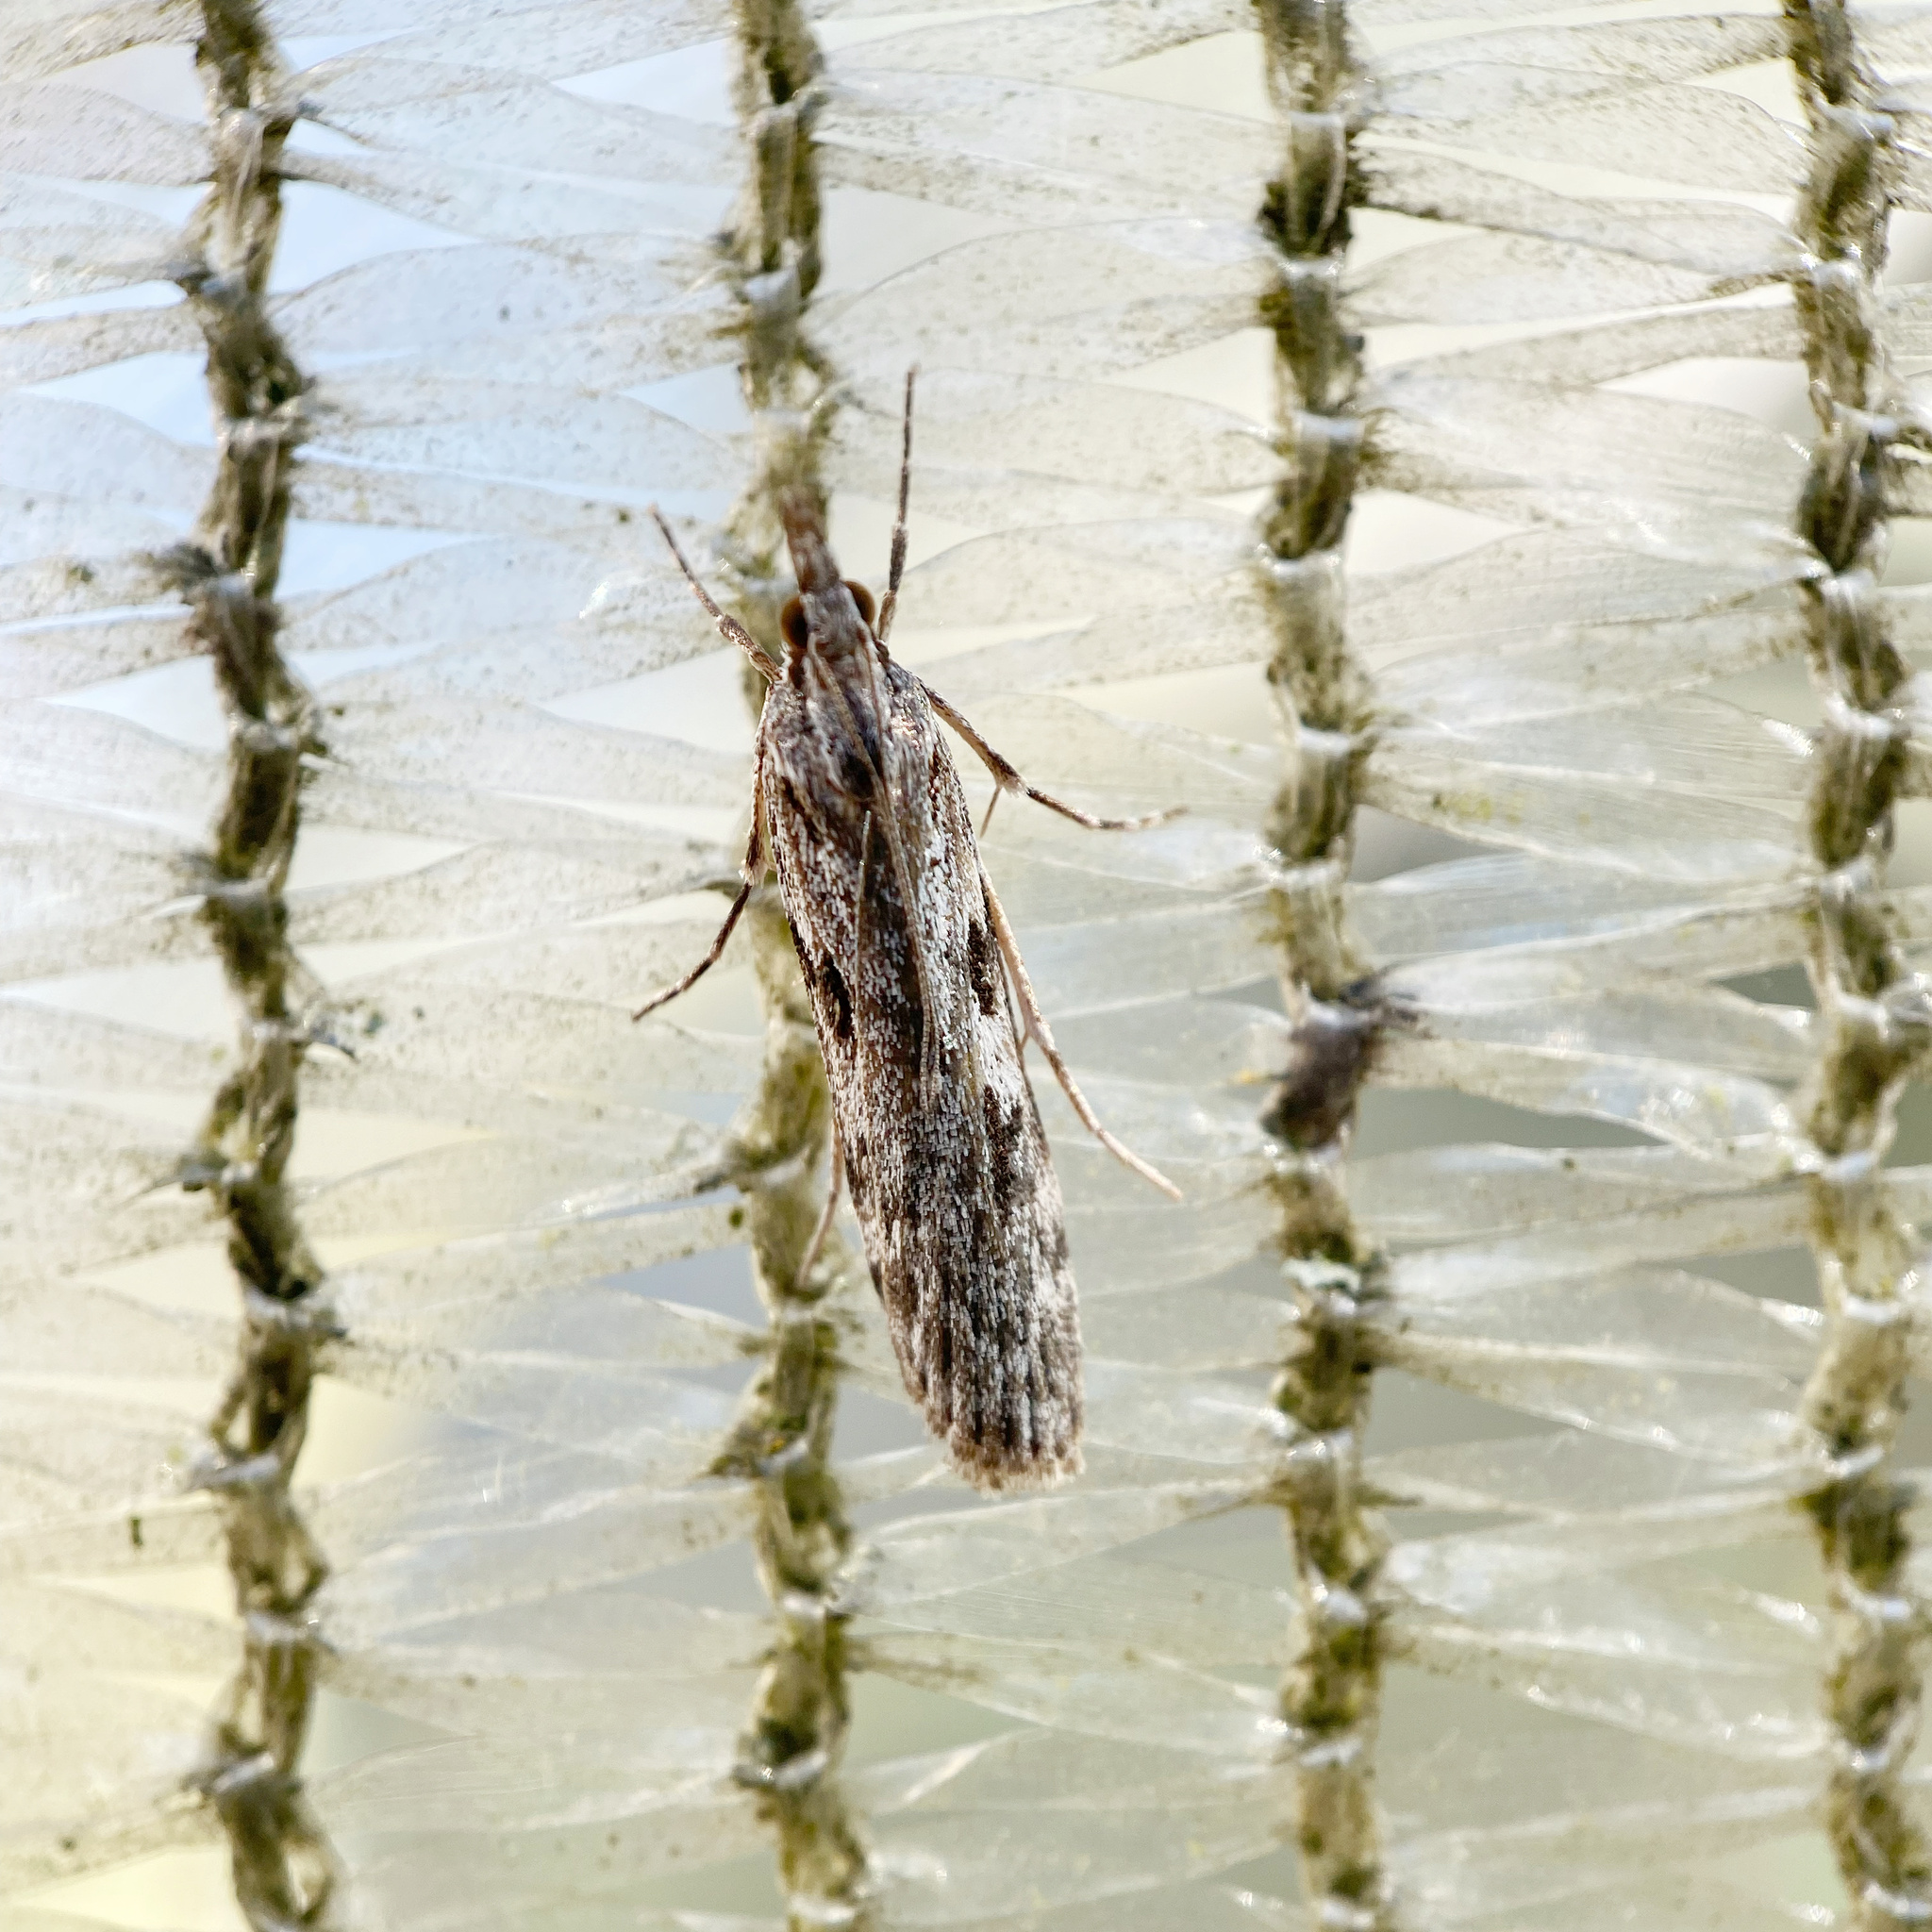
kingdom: Animalia
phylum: Arthropoda
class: Insecta
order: Lepidoptera
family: Crambidae
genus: Scoparia
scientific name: Scoparia halopis
